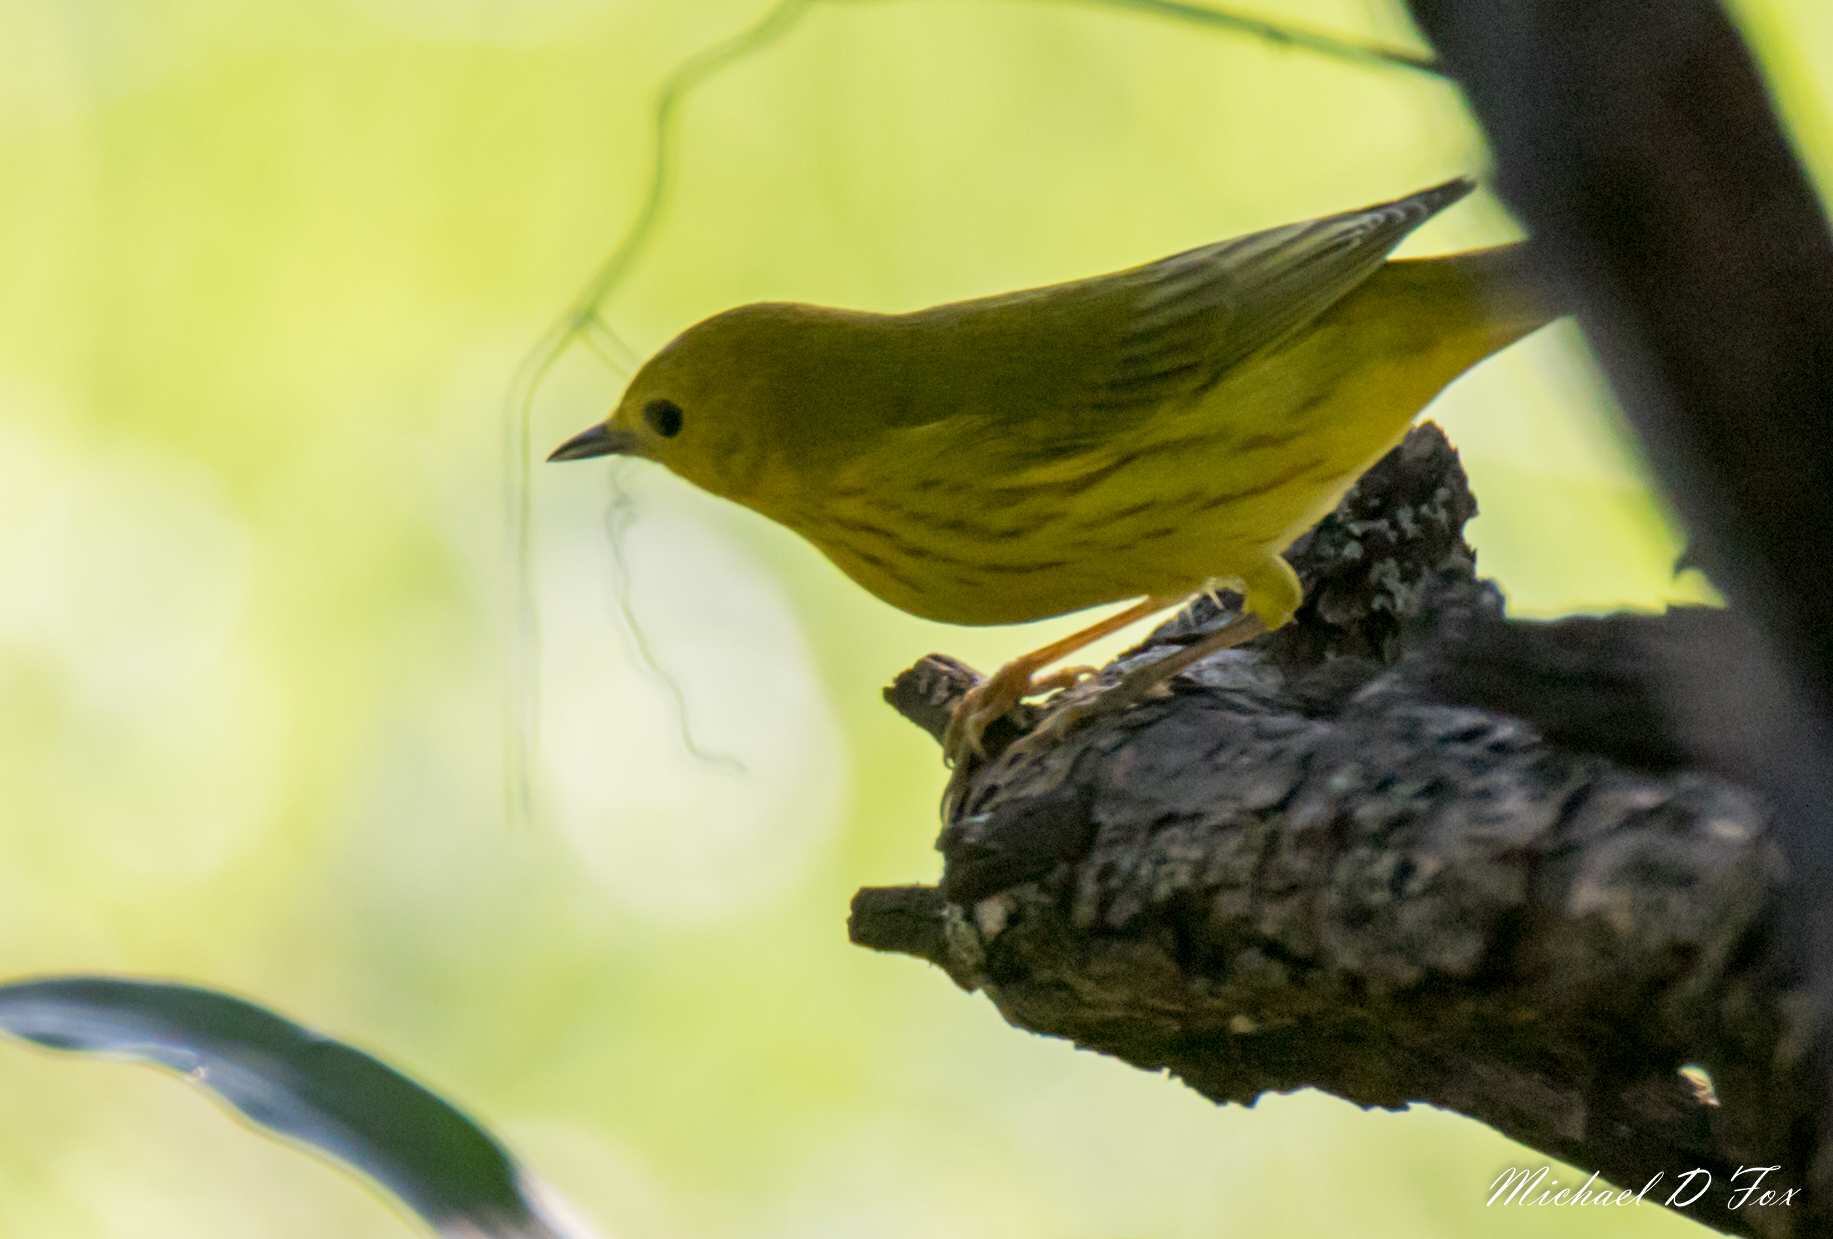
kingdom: Animalia
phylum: Chordata
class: Aves
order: Passeriformes
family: Parulidae
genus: Setophaga
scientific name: Setophaga petechia
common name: Yellow warbler
